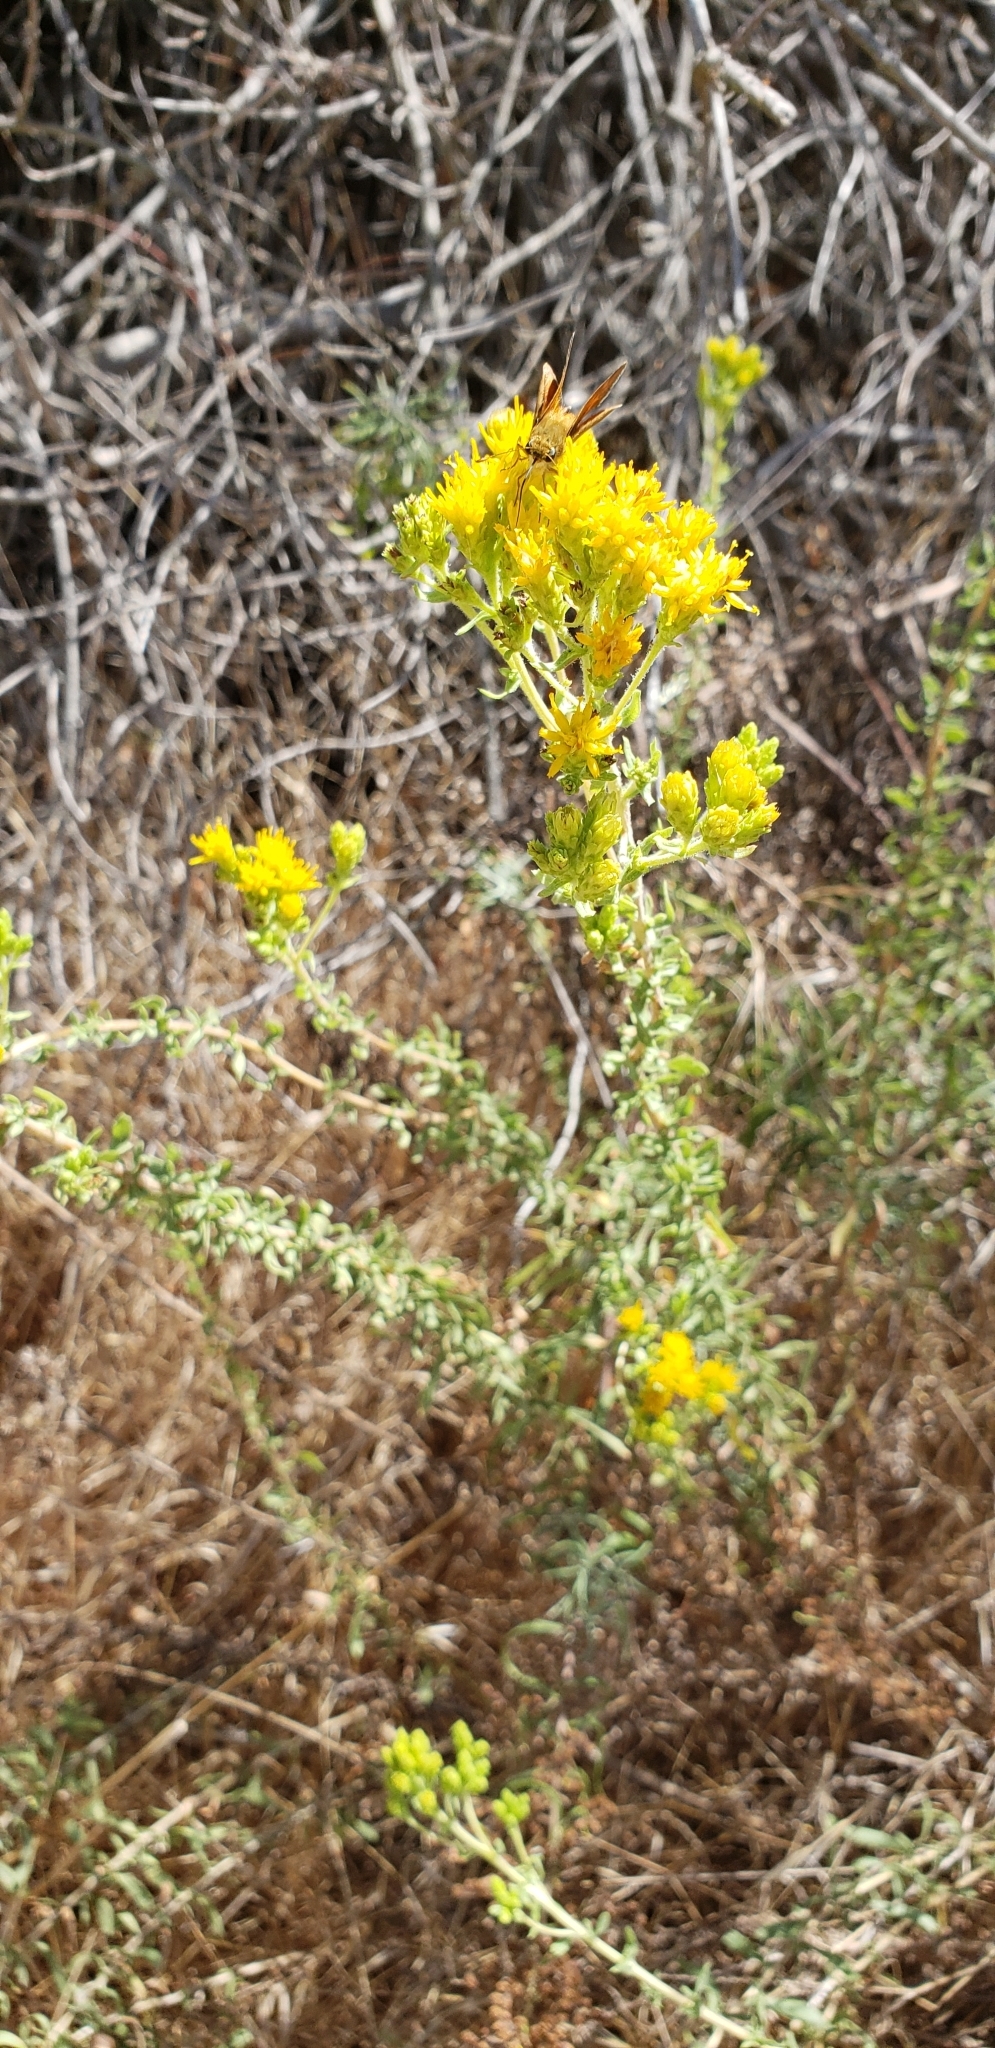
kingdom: Animalia
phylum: Arthropoda
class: Insecta
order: Lepidoptera
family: Hesperiidae
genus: Ochlodes
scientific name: Ochlodes sylvanoides
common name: Woodland skipper
